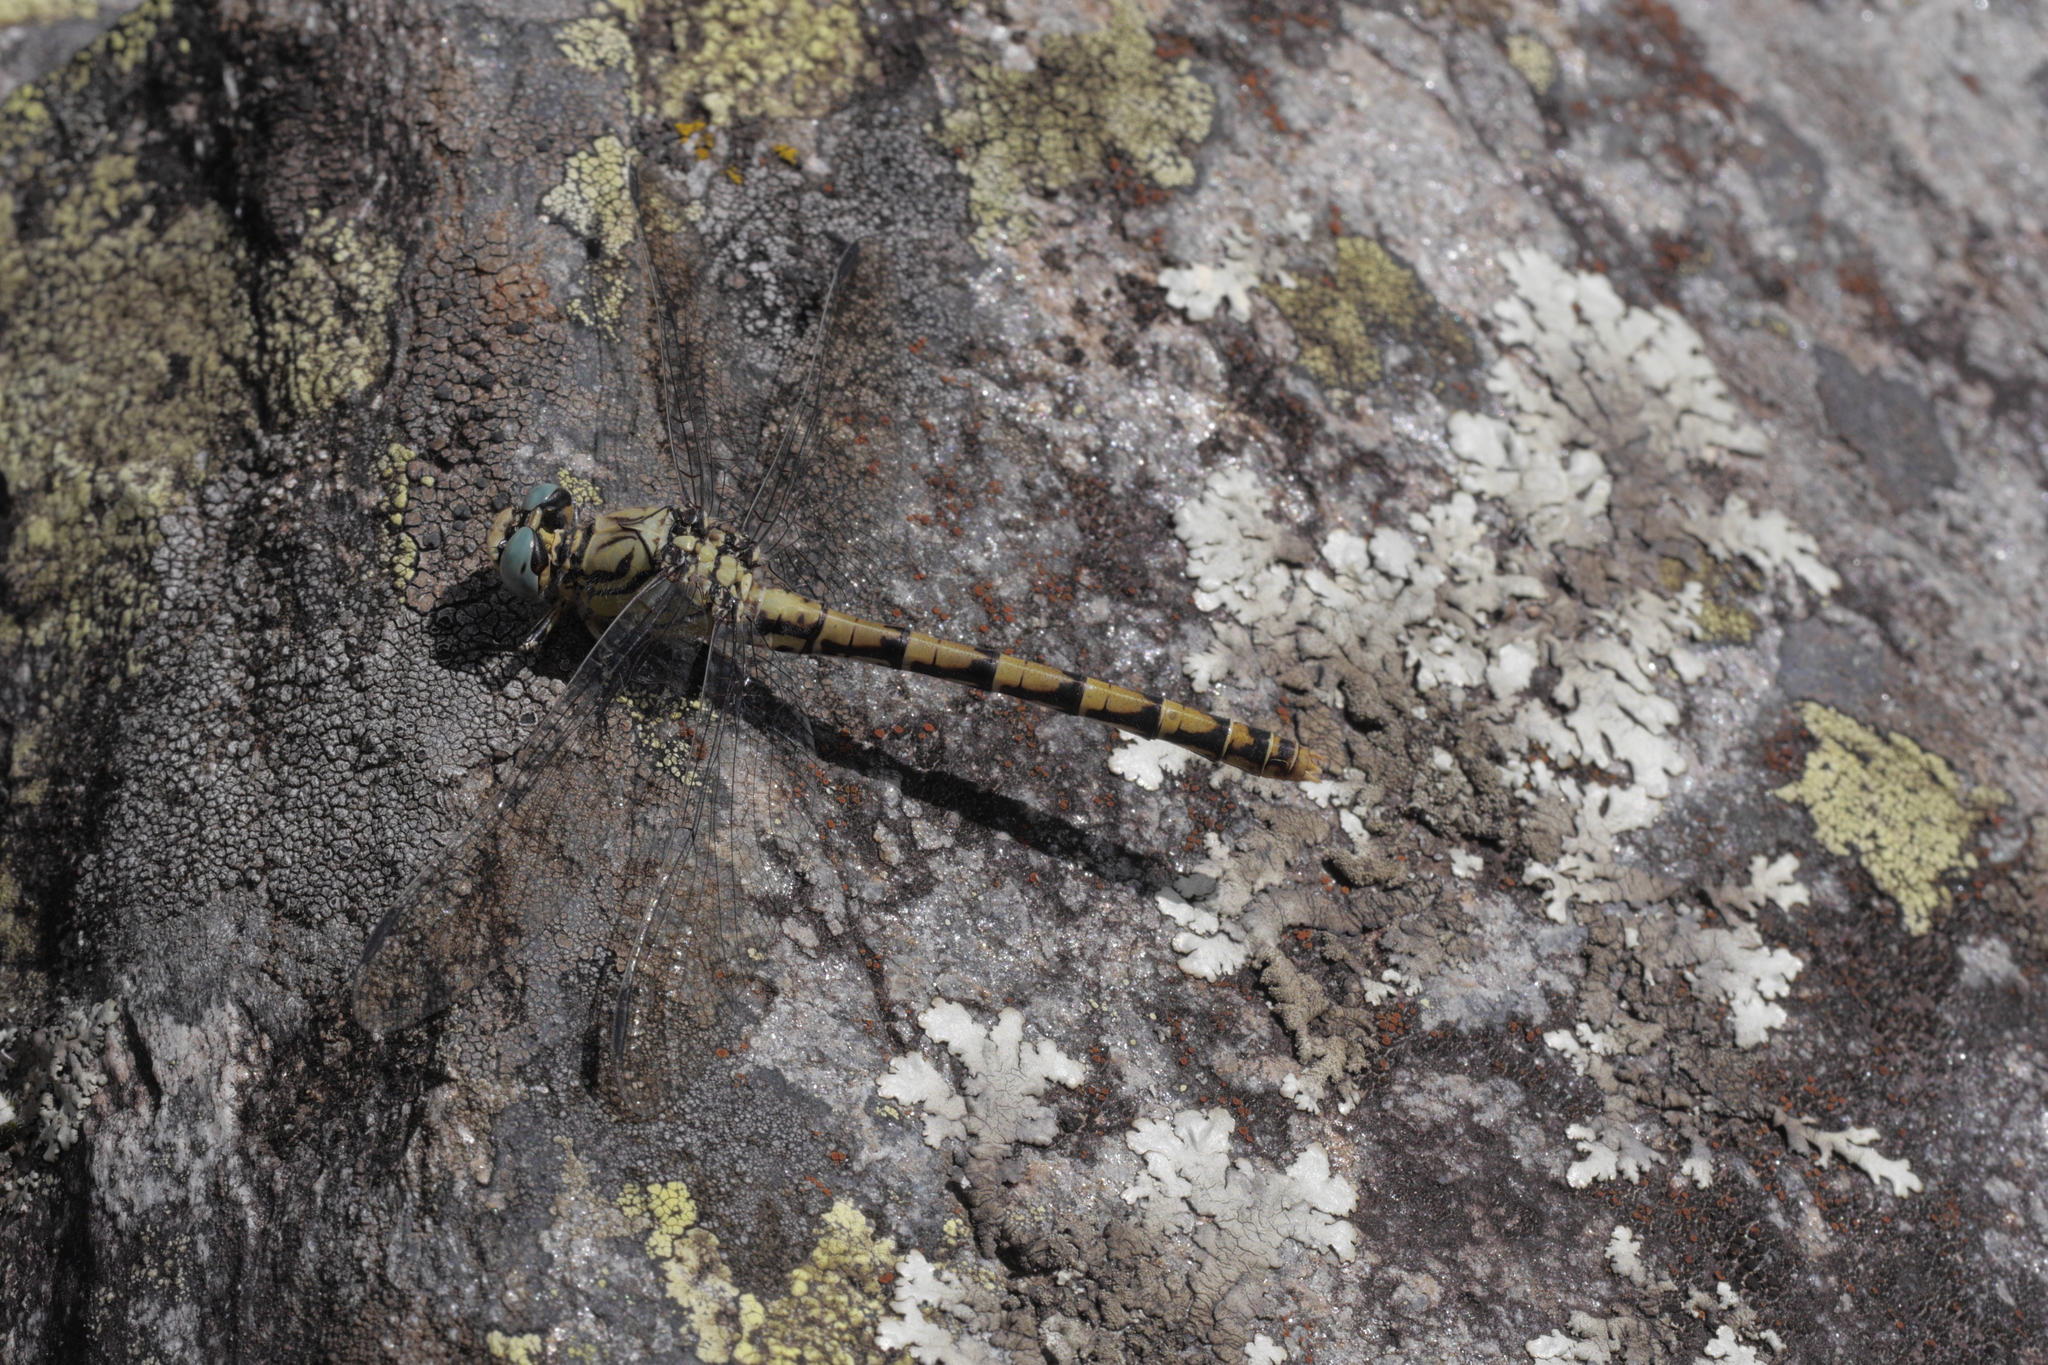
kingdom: Animalia
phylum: Arthropoda
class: Insecta
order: Odonata
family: Gomphidae
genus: Onychogomphus
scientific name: Onychogomphus forcipatus
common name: Small pincertail
